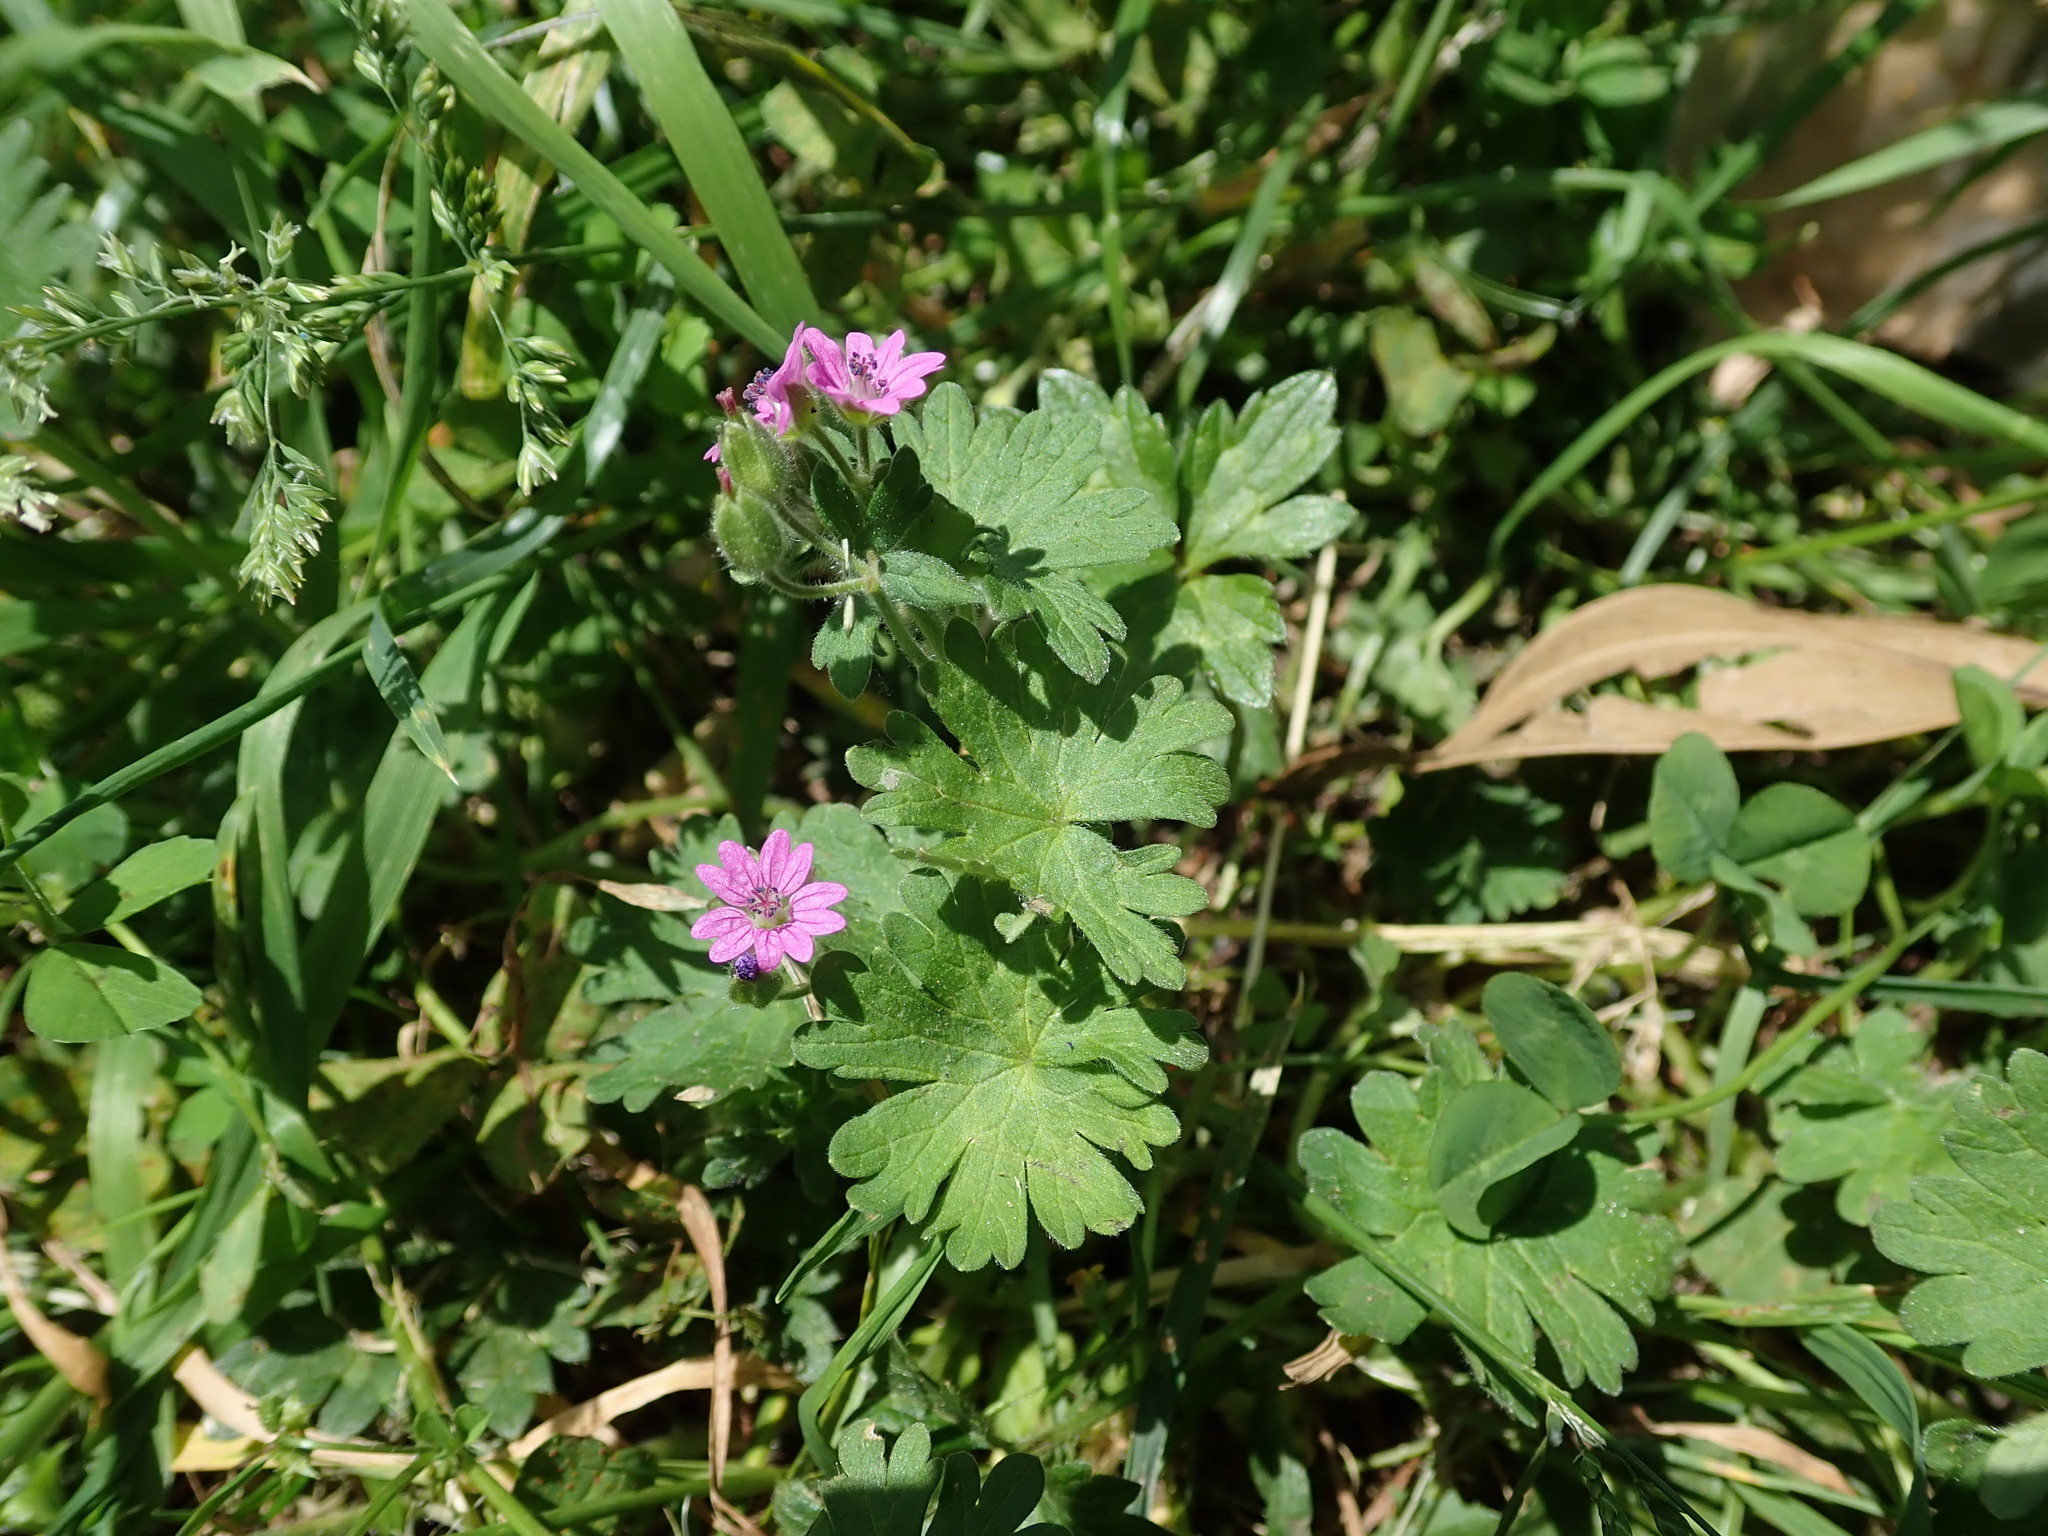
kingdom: Plantae
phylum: Tracheophyta
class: Magnoliopsida
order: Geraniales
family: Geraniaceae
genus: Geranium
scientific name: Geranium molle
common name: Dove's-foot crane's-bill
